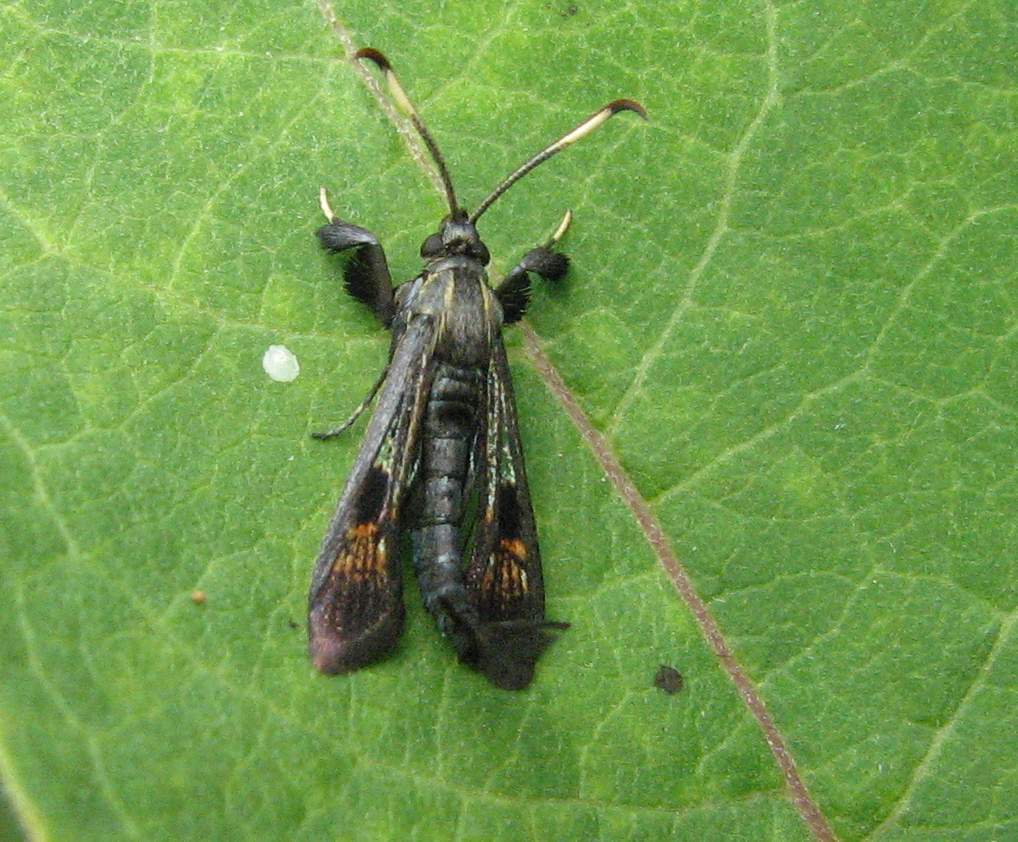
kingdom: Animalia
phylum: Arthropoda
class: Insecta
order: Lepidoptera
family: Sesiidae
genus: Albuna
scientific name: Albuna fraxini
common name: Virginia creeper clearwing
